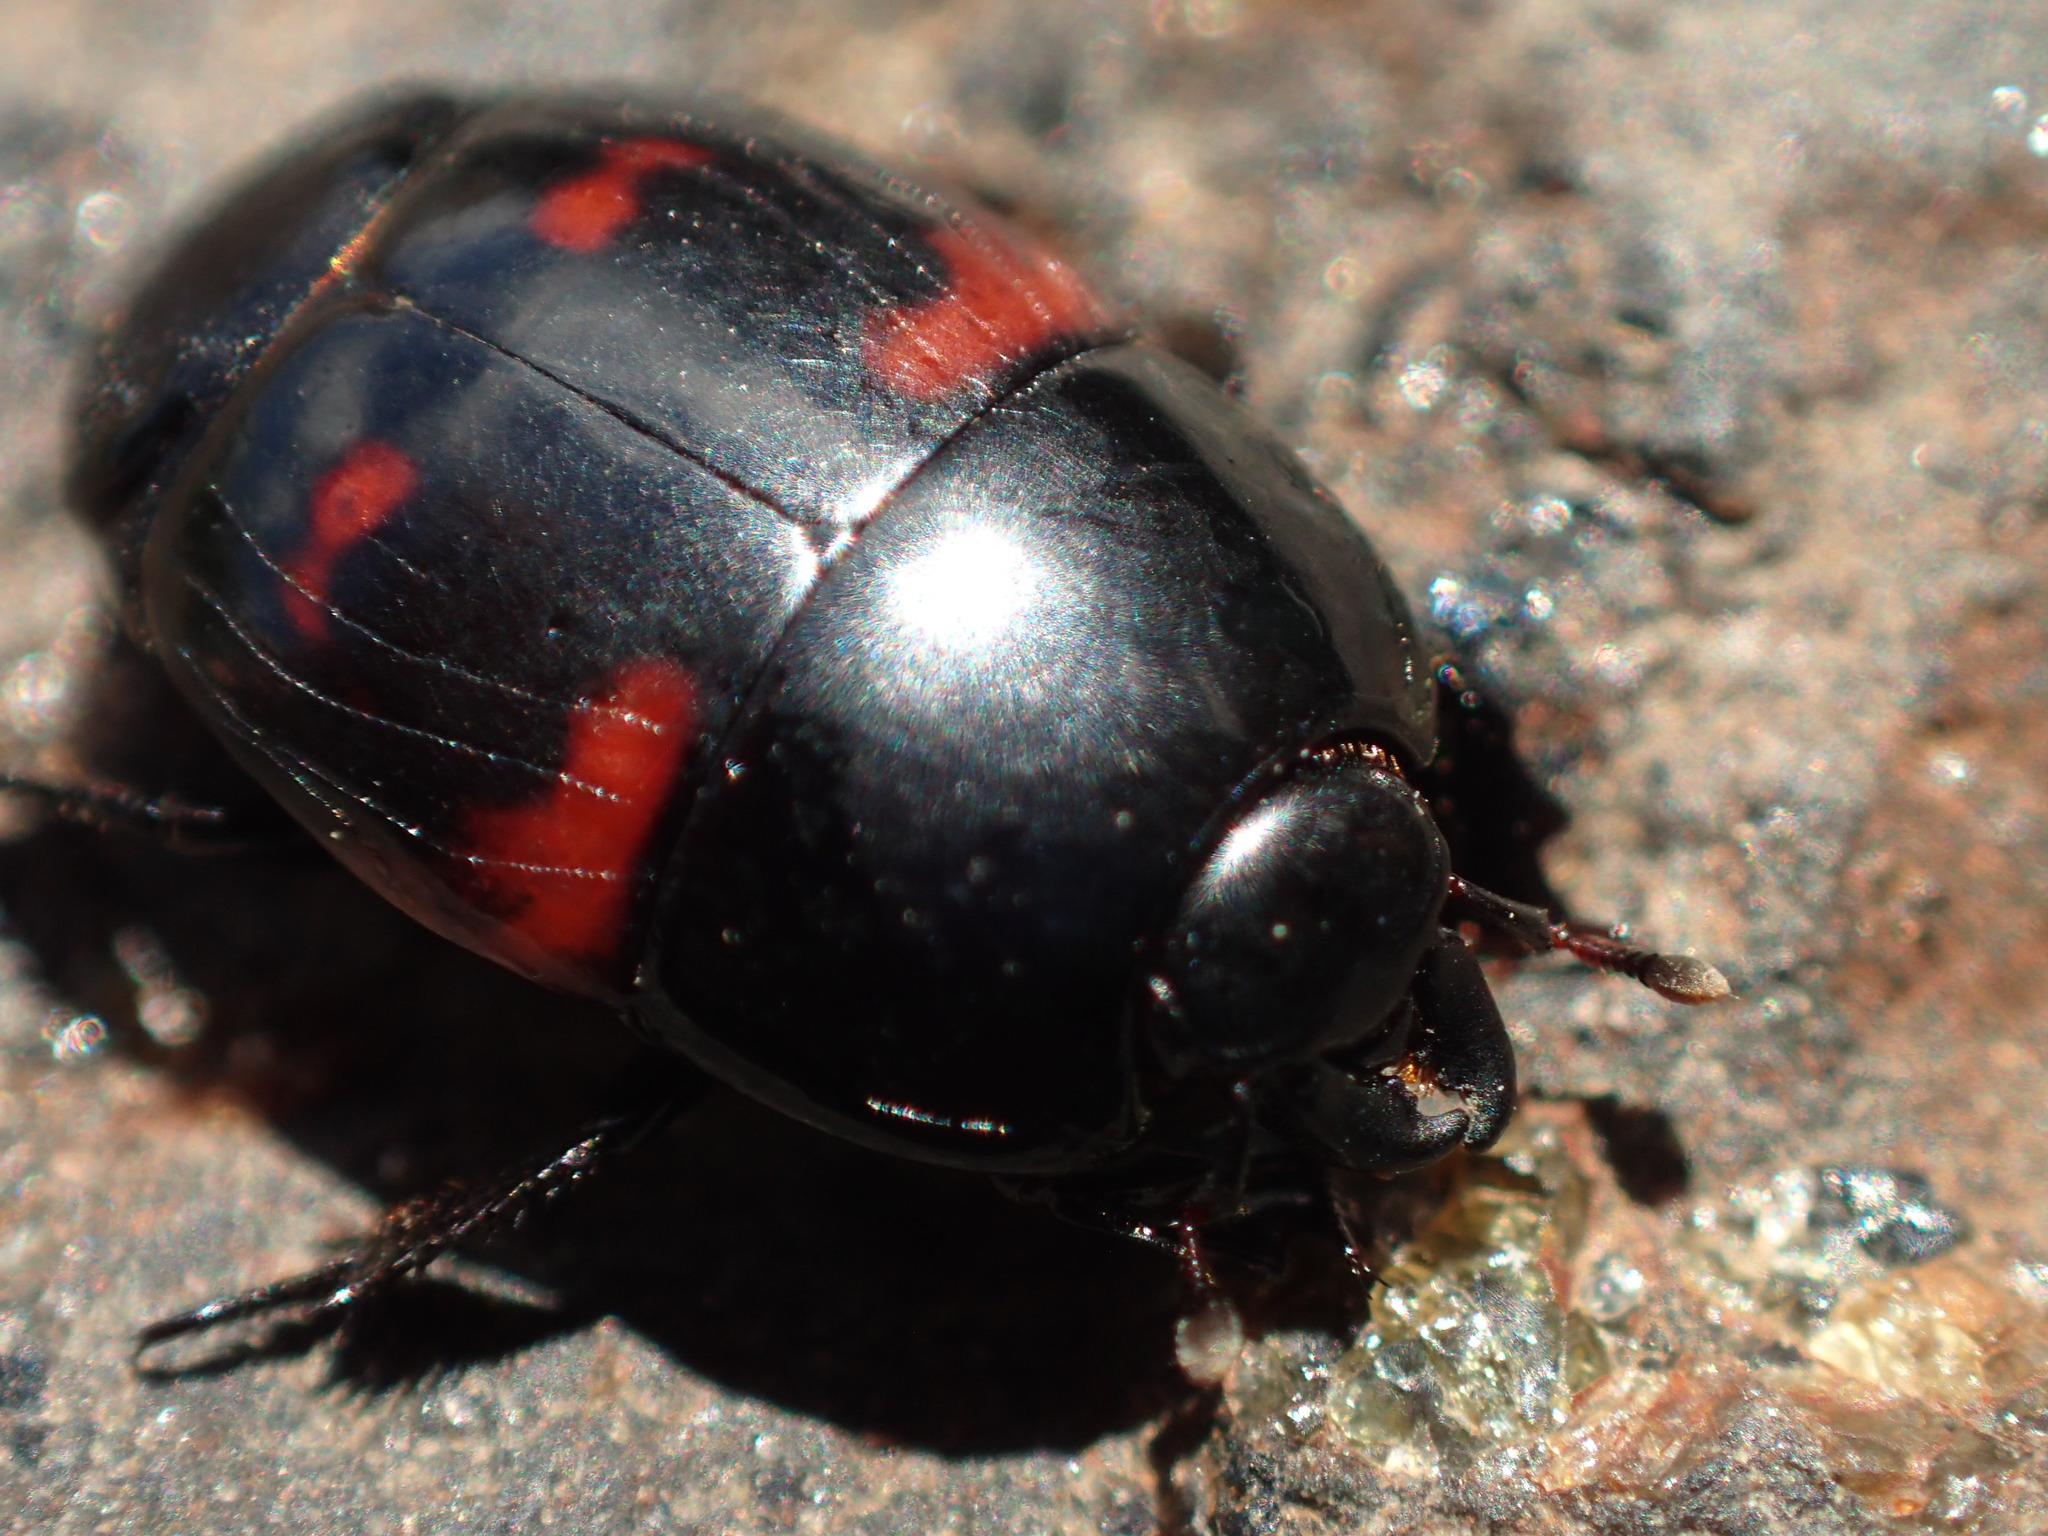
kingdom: Animalia
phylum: Arthropoda
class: Insecta
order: Coleoptera
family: Histeridae
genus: Hister
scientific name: Hister quadrimaculatus
